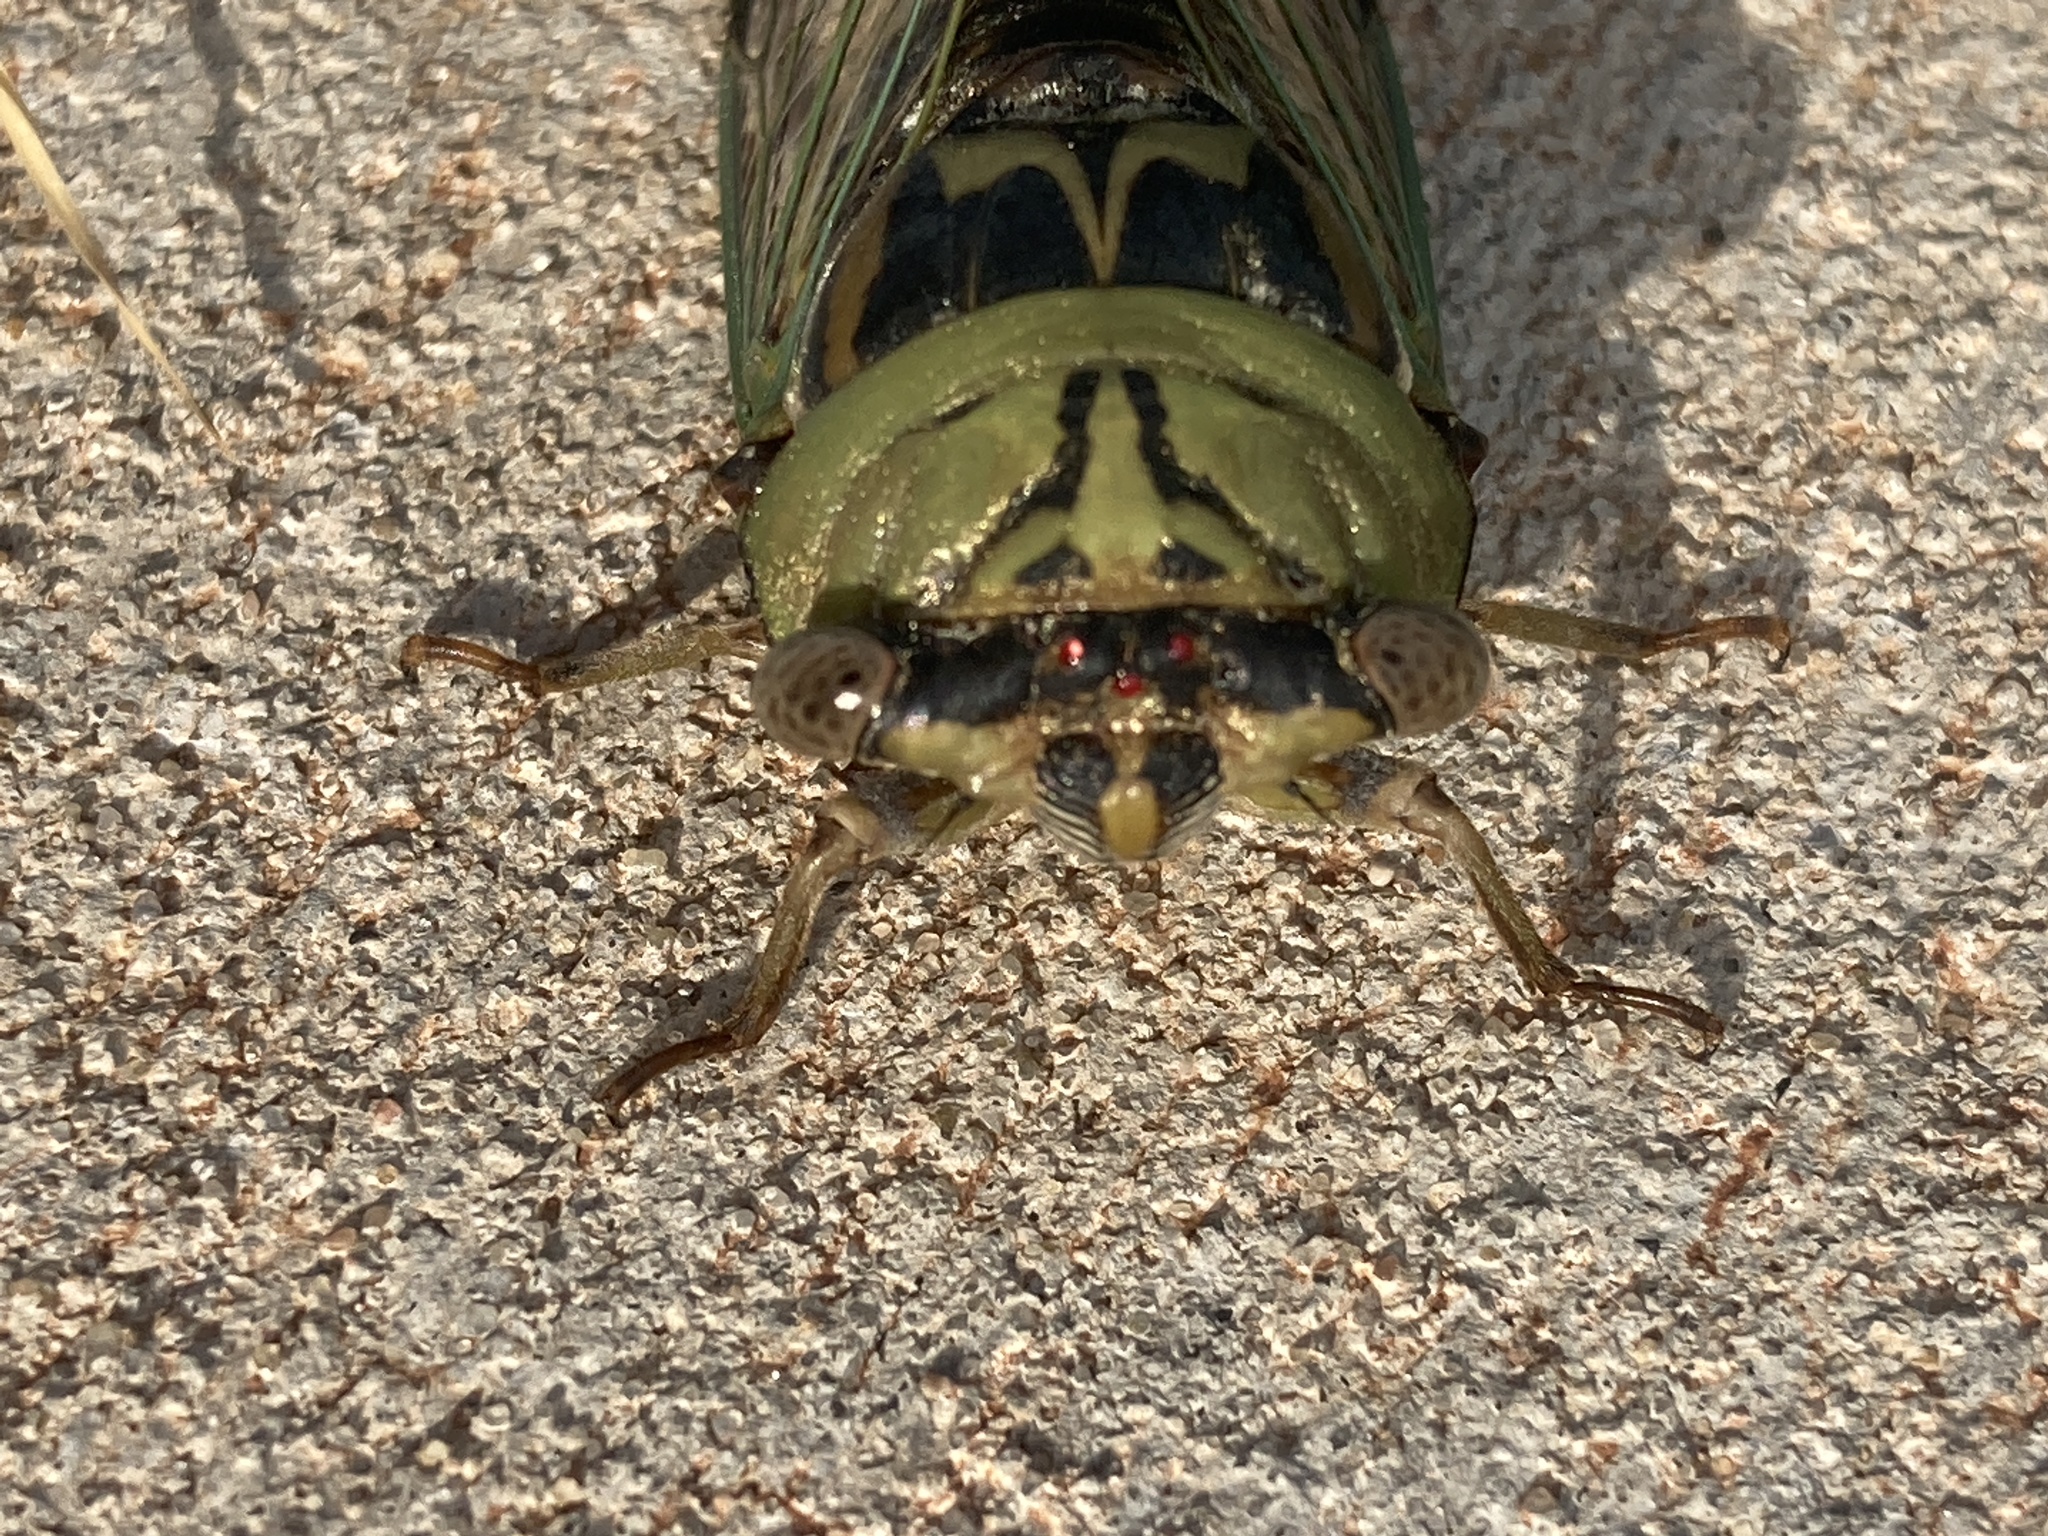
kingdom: Animalia
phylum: Arthropoda
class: Insecta
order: Hemiptera
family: Cicadidae
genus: Megatibicen
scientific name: Megatibicen resh
